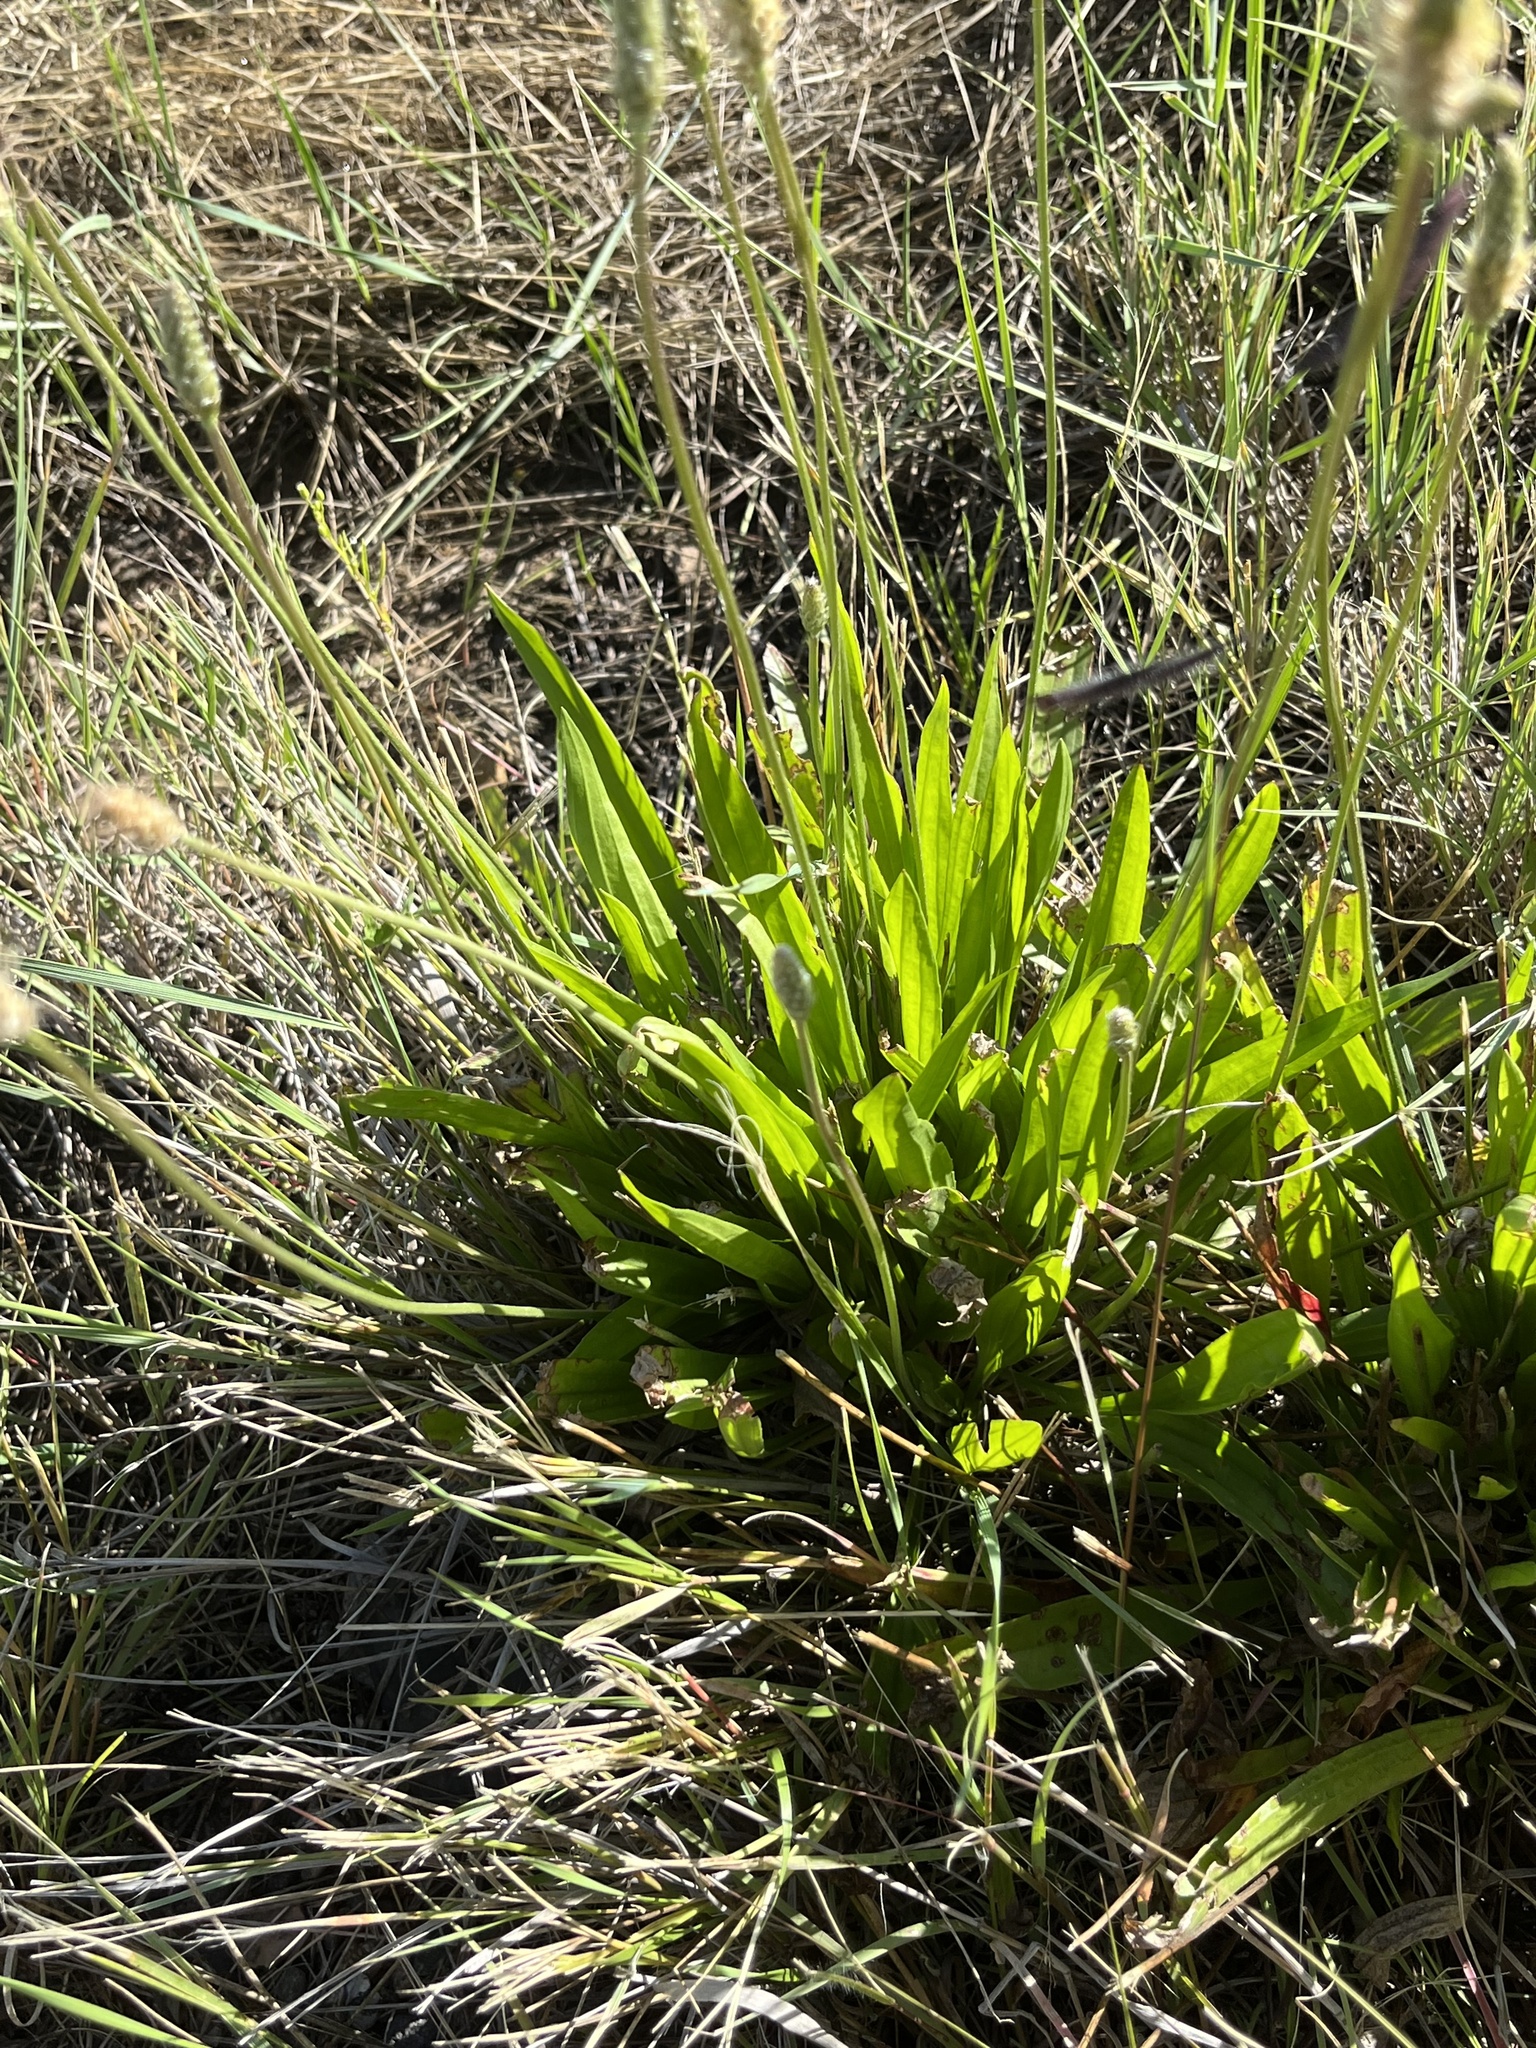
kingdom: Plantae
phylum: Tracheophyta
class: Magnoliopsida
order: Lamiales
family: Plantaginaceae
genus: Plantago
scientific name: Plantago lanceolata
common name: Ribwort plantain
